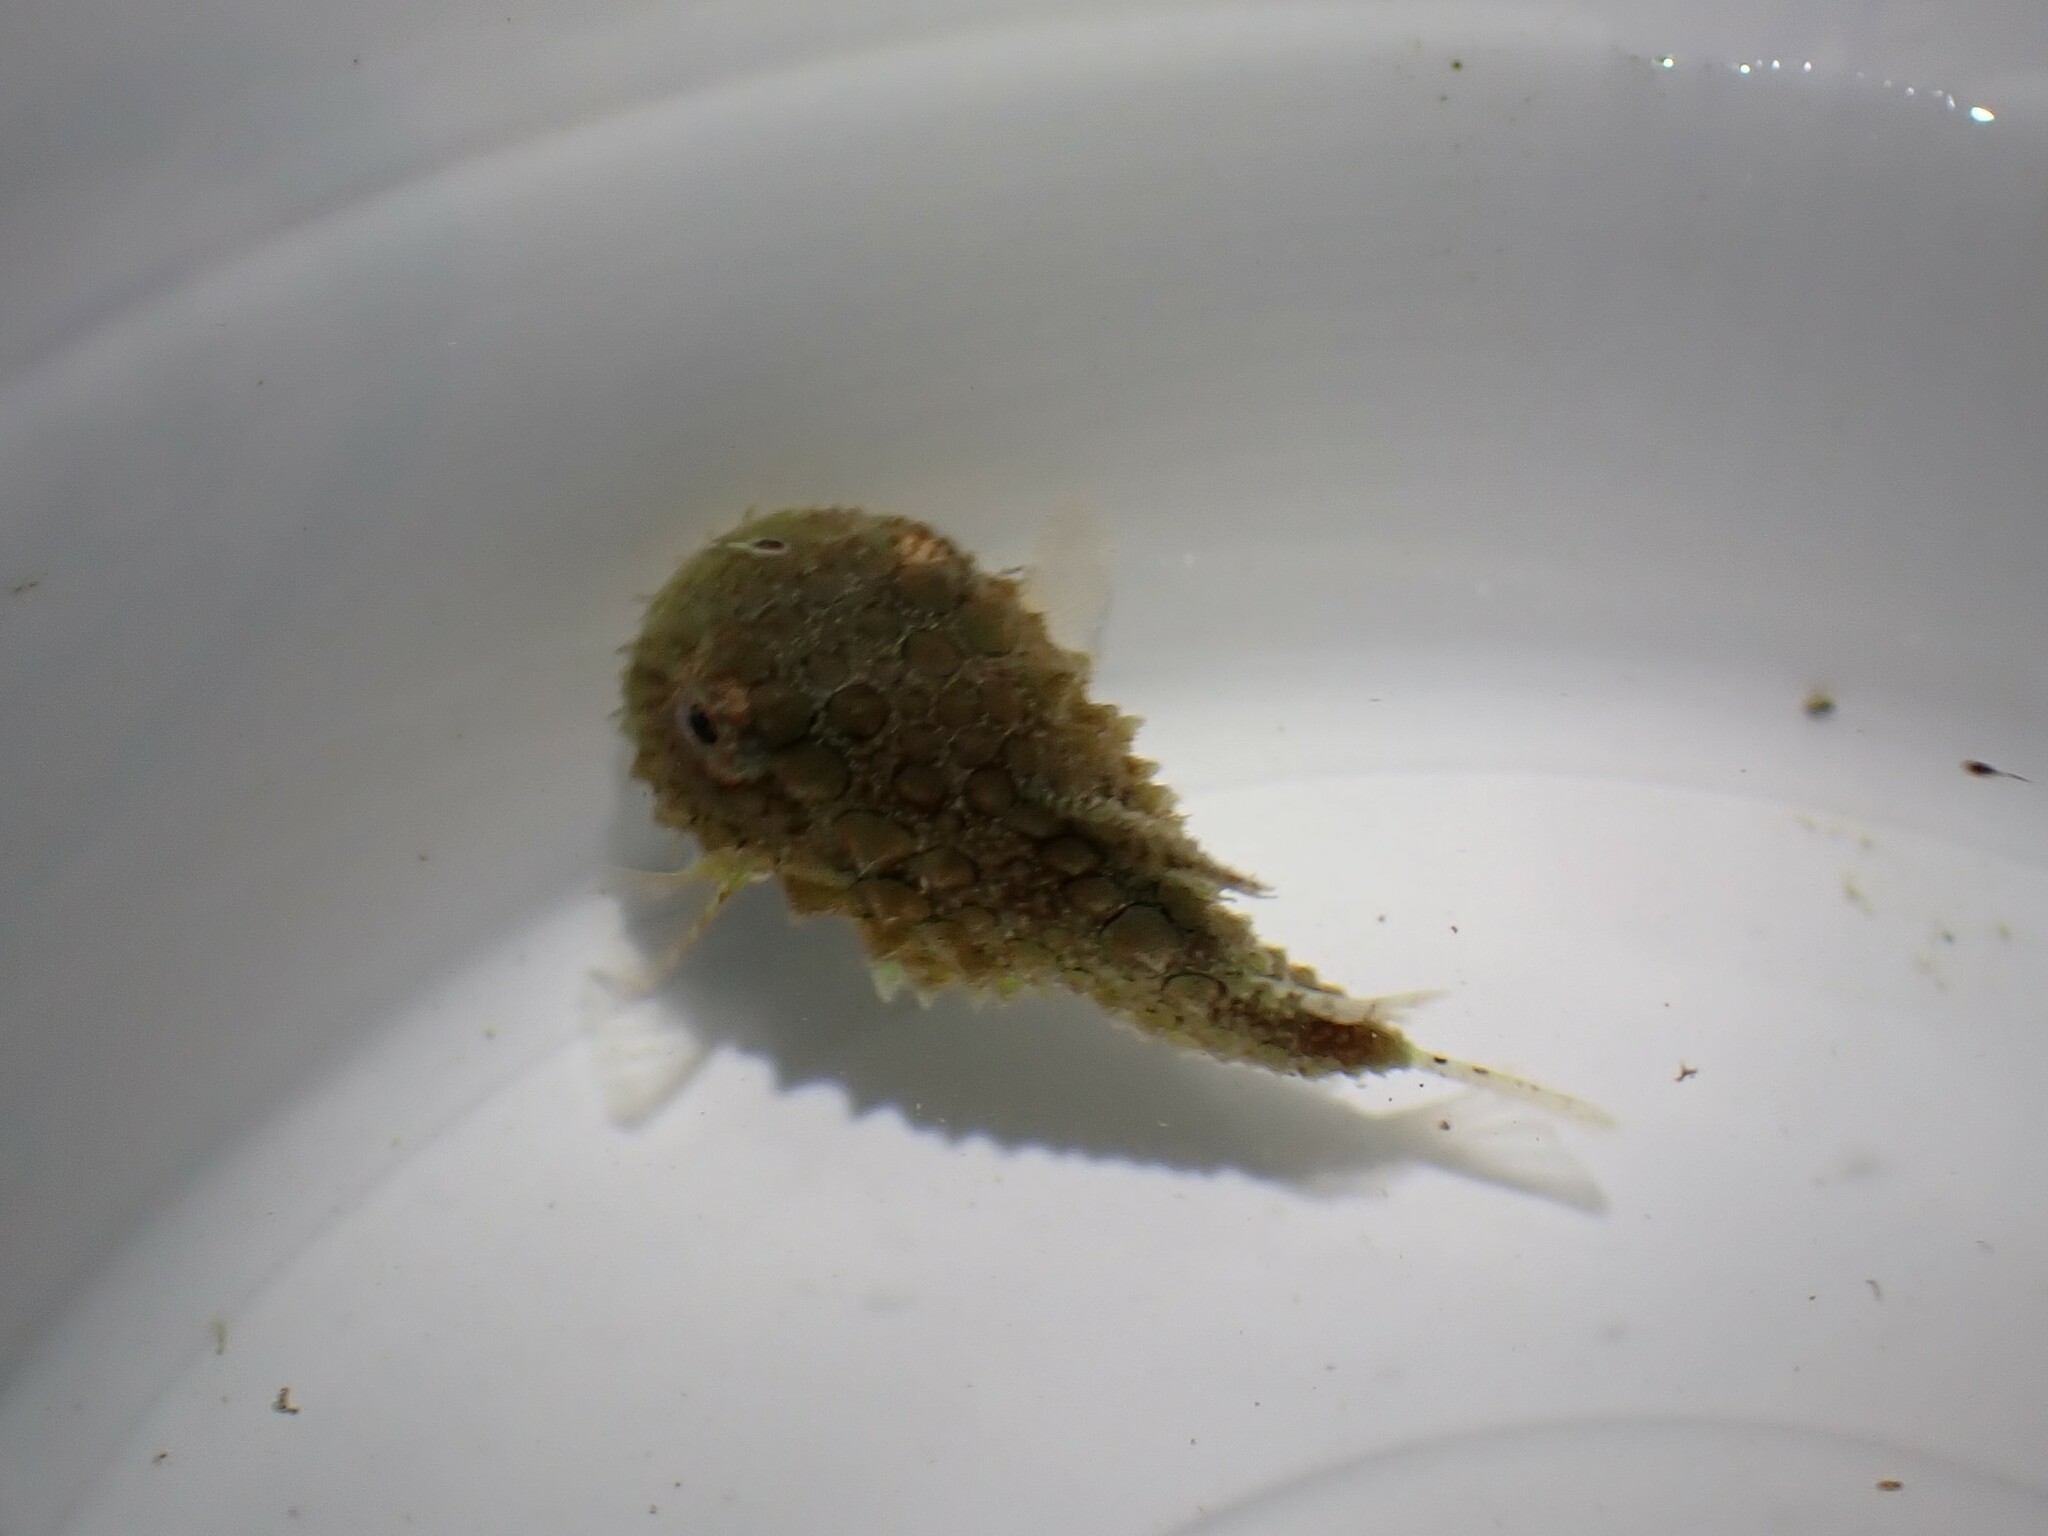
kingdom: Animalia
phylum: Chordata
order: Scorpaeniformes
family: Cyclopteridae
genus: Eumicrotremus
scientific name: Eumicrotremus orbis
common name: Pacific spiny lumpsucker
